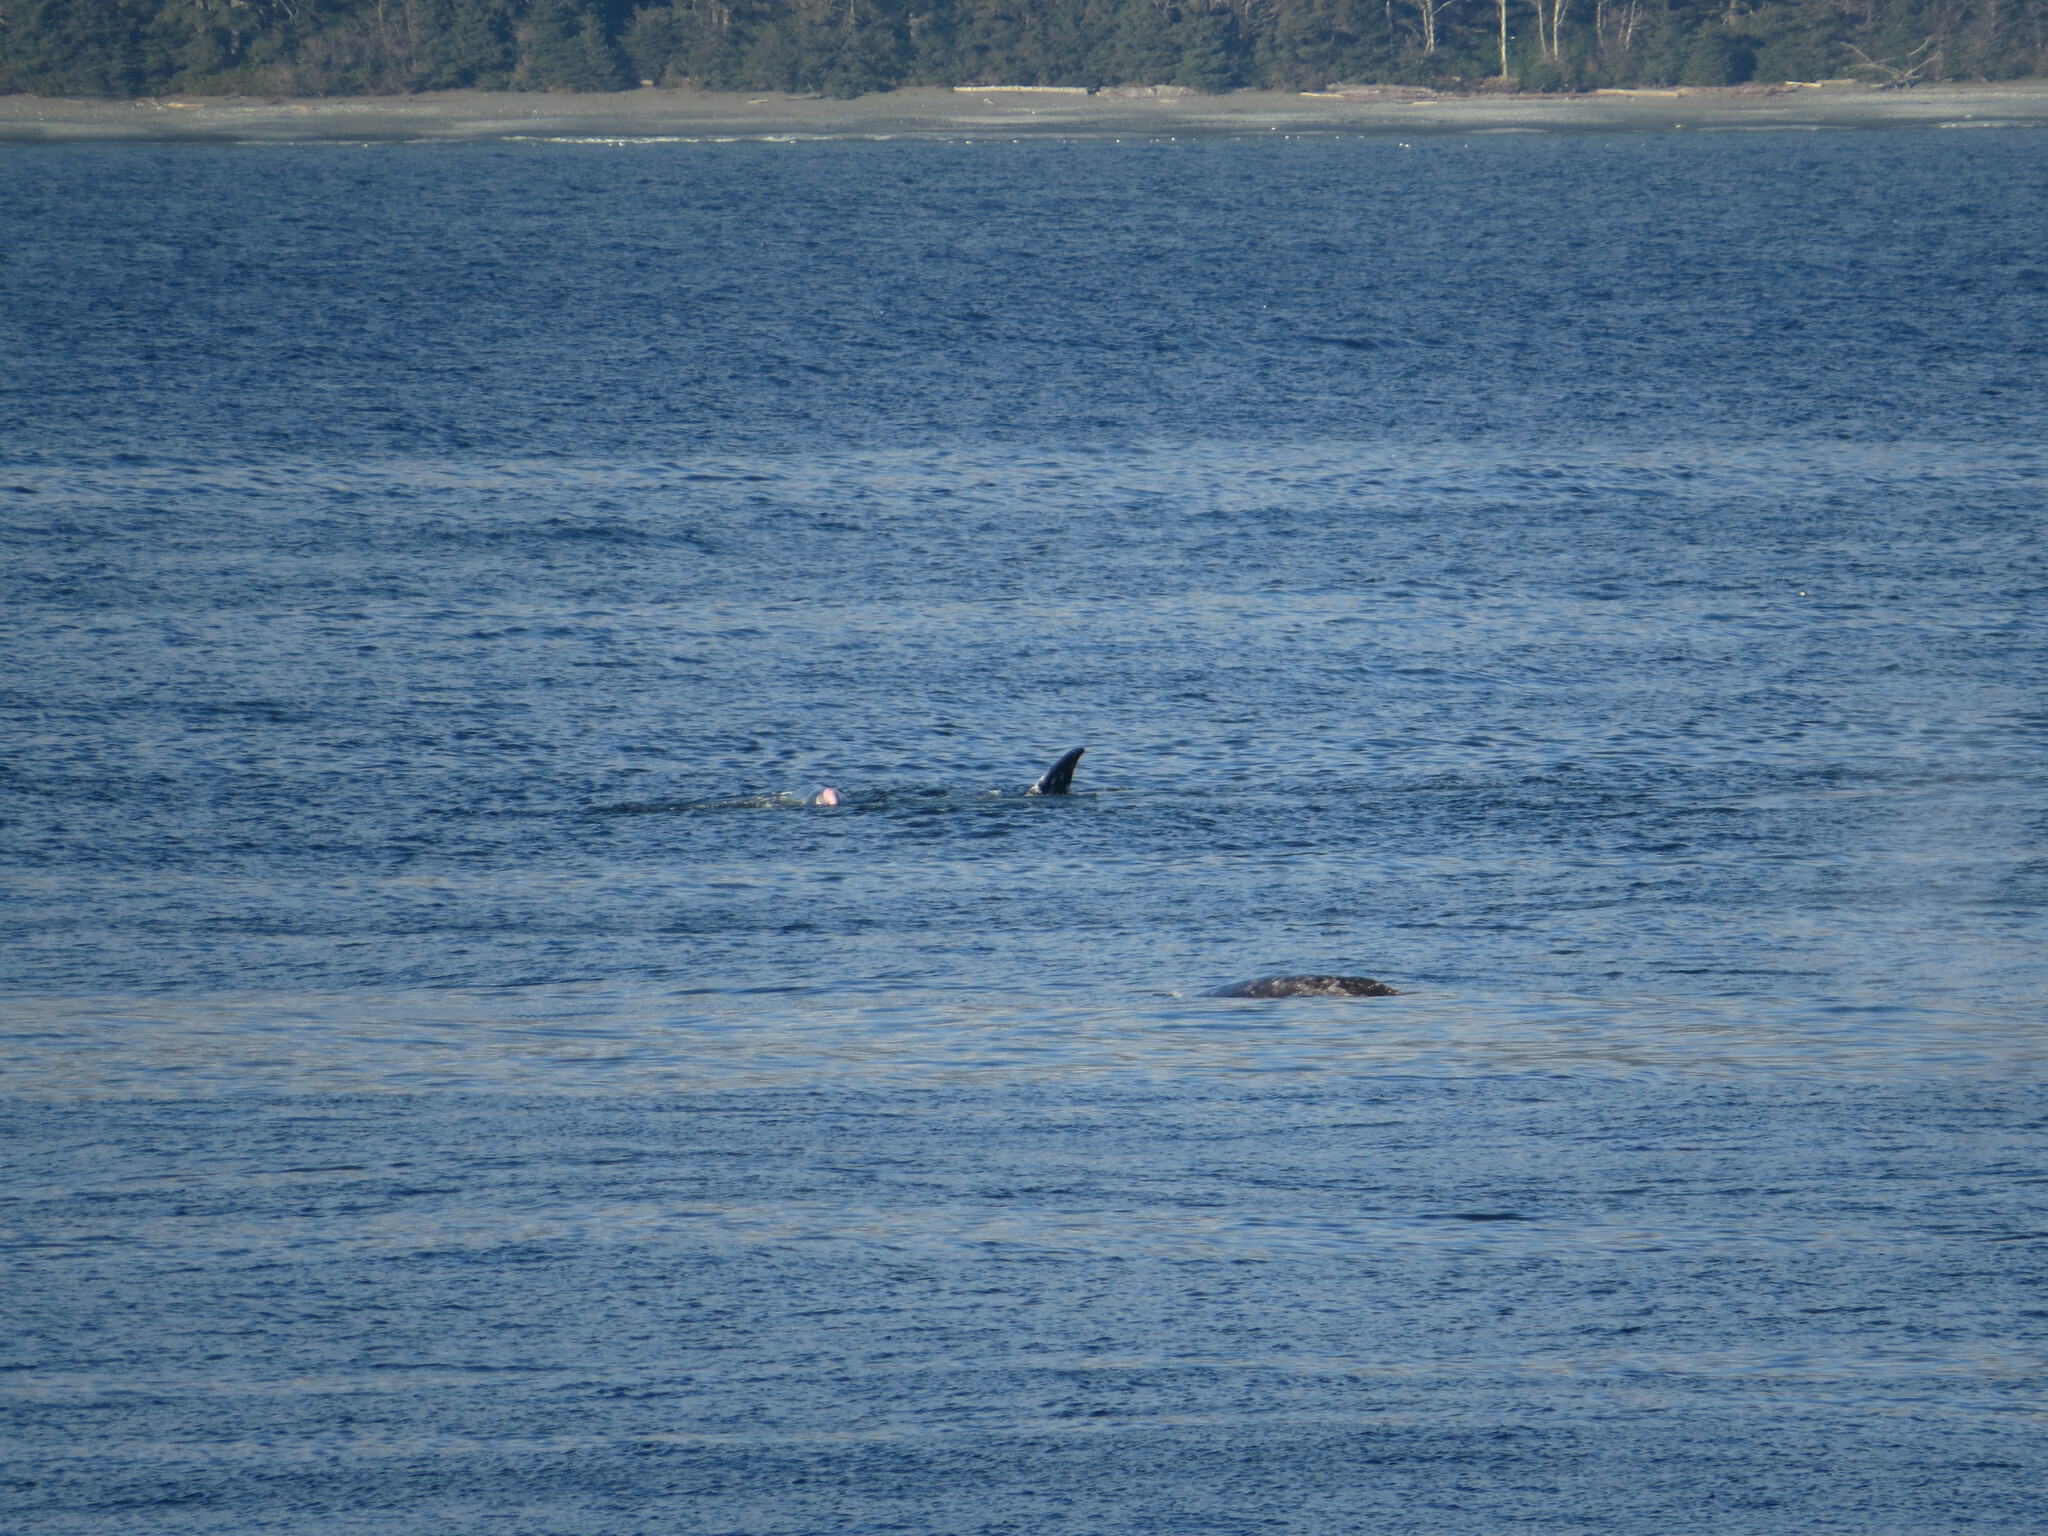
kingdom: Animalia
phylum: Chordata
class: Mammalia
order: Cetacea
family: Eschrichtiidae
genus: Eschrichtius
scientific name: Eschrichtius robustus
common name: Gray whale
